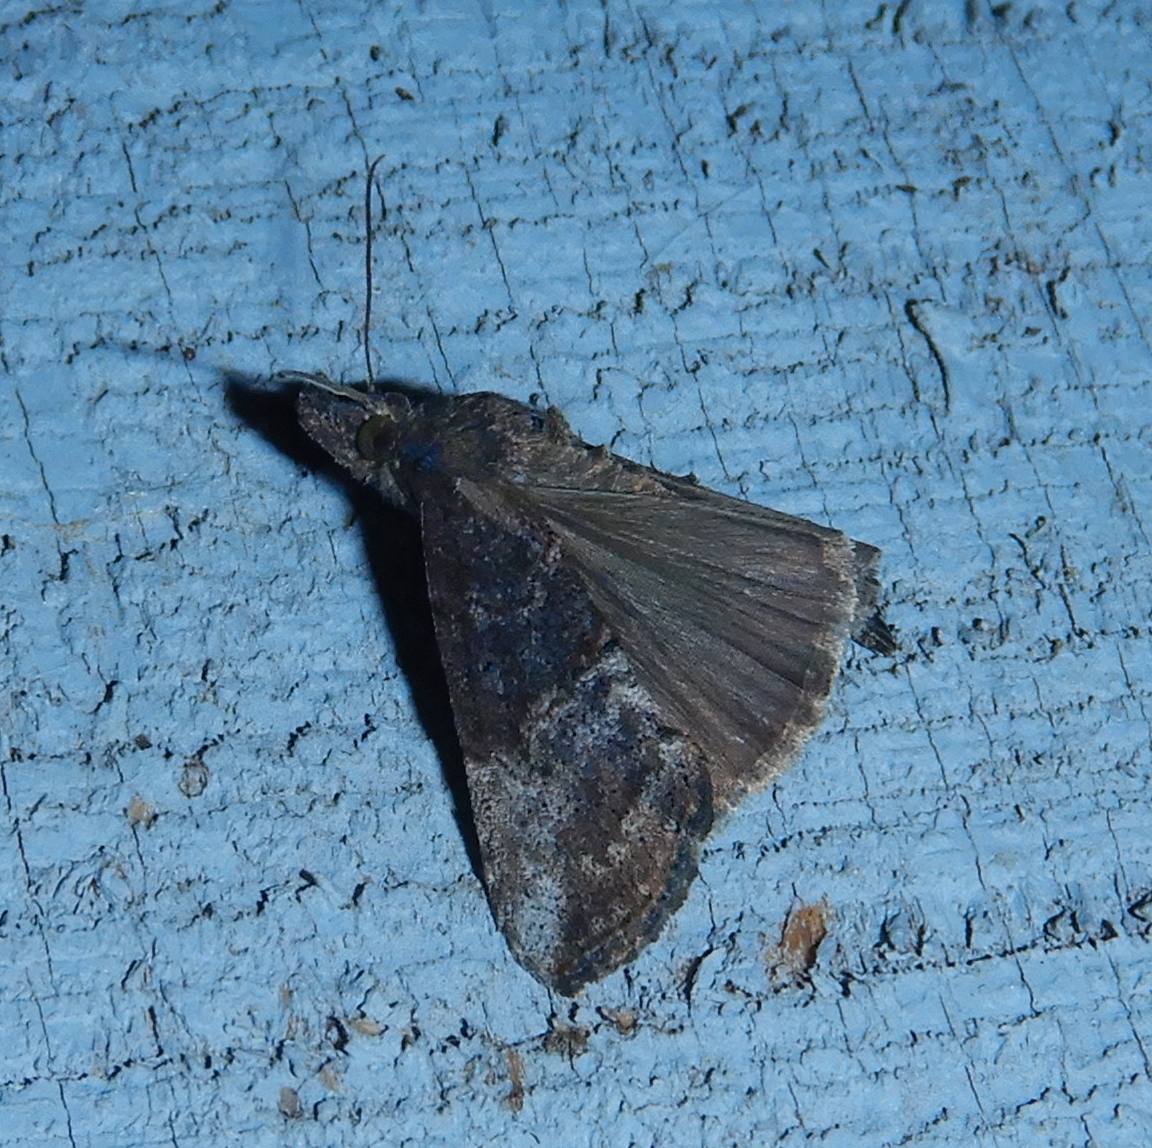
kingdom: Animalia
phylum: Arthropoda
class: Insecta
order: Lepidoptera
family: Erebidae
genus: Hypena
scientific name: Hypena scabra
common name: Green cloverworm
